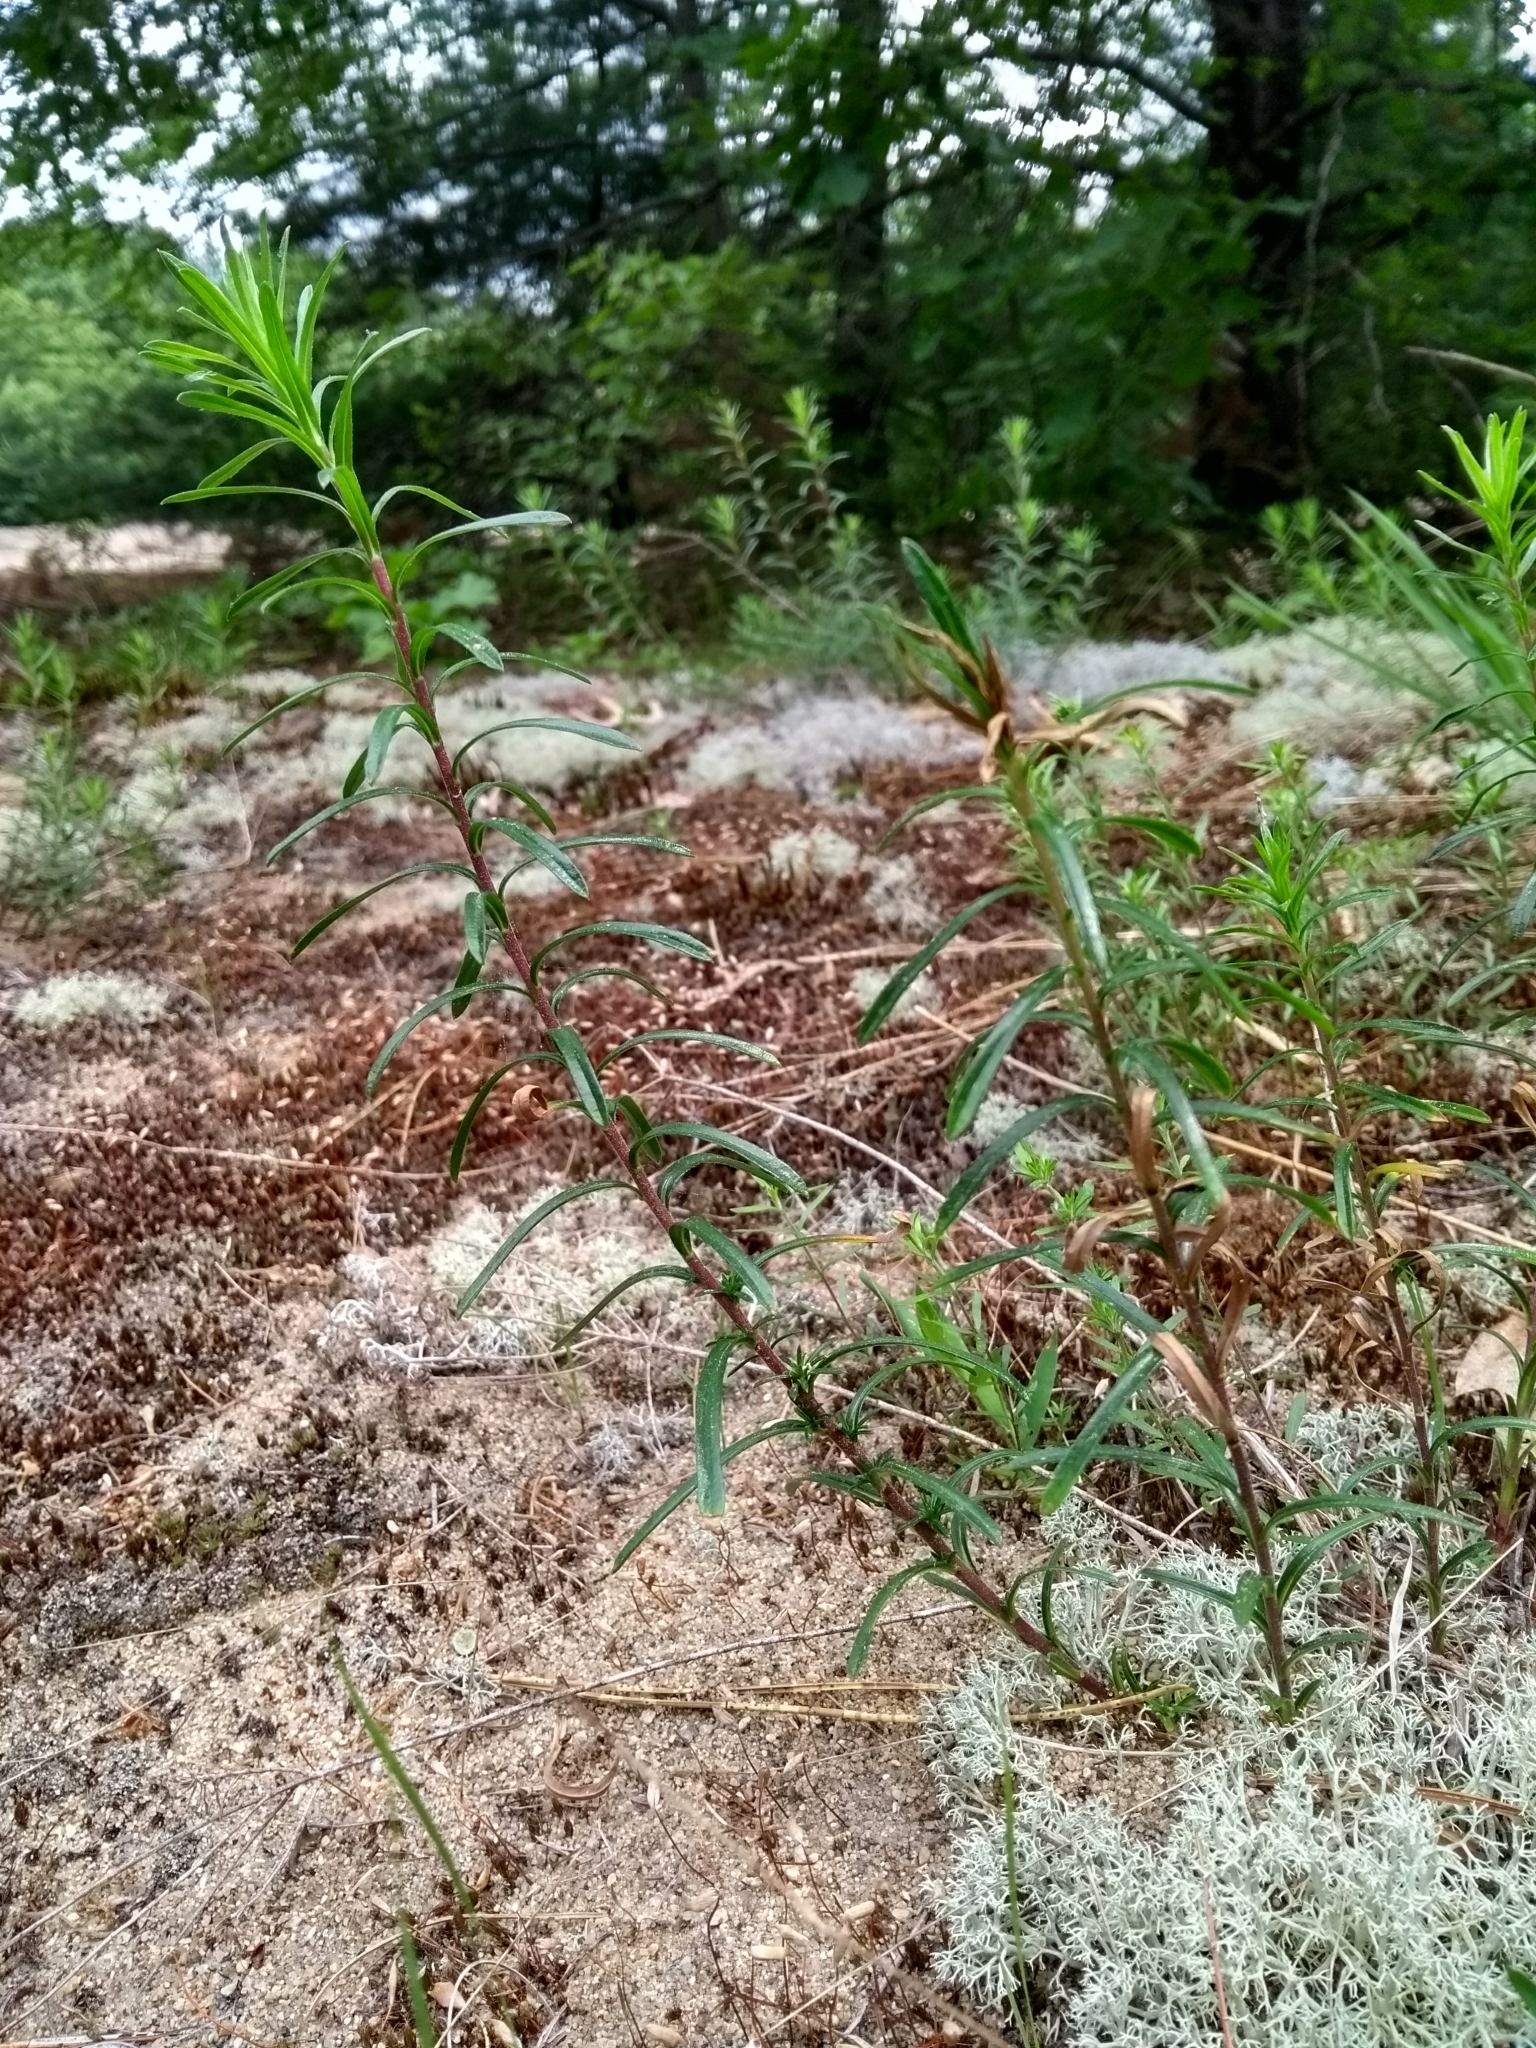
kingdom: Plantae
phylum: Tracheophyta
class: Magnoliopsida
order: Asterales
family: Asteraceae
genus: Ionactis
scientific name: Ionactis linariifolia
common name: Flax-leaf aster
